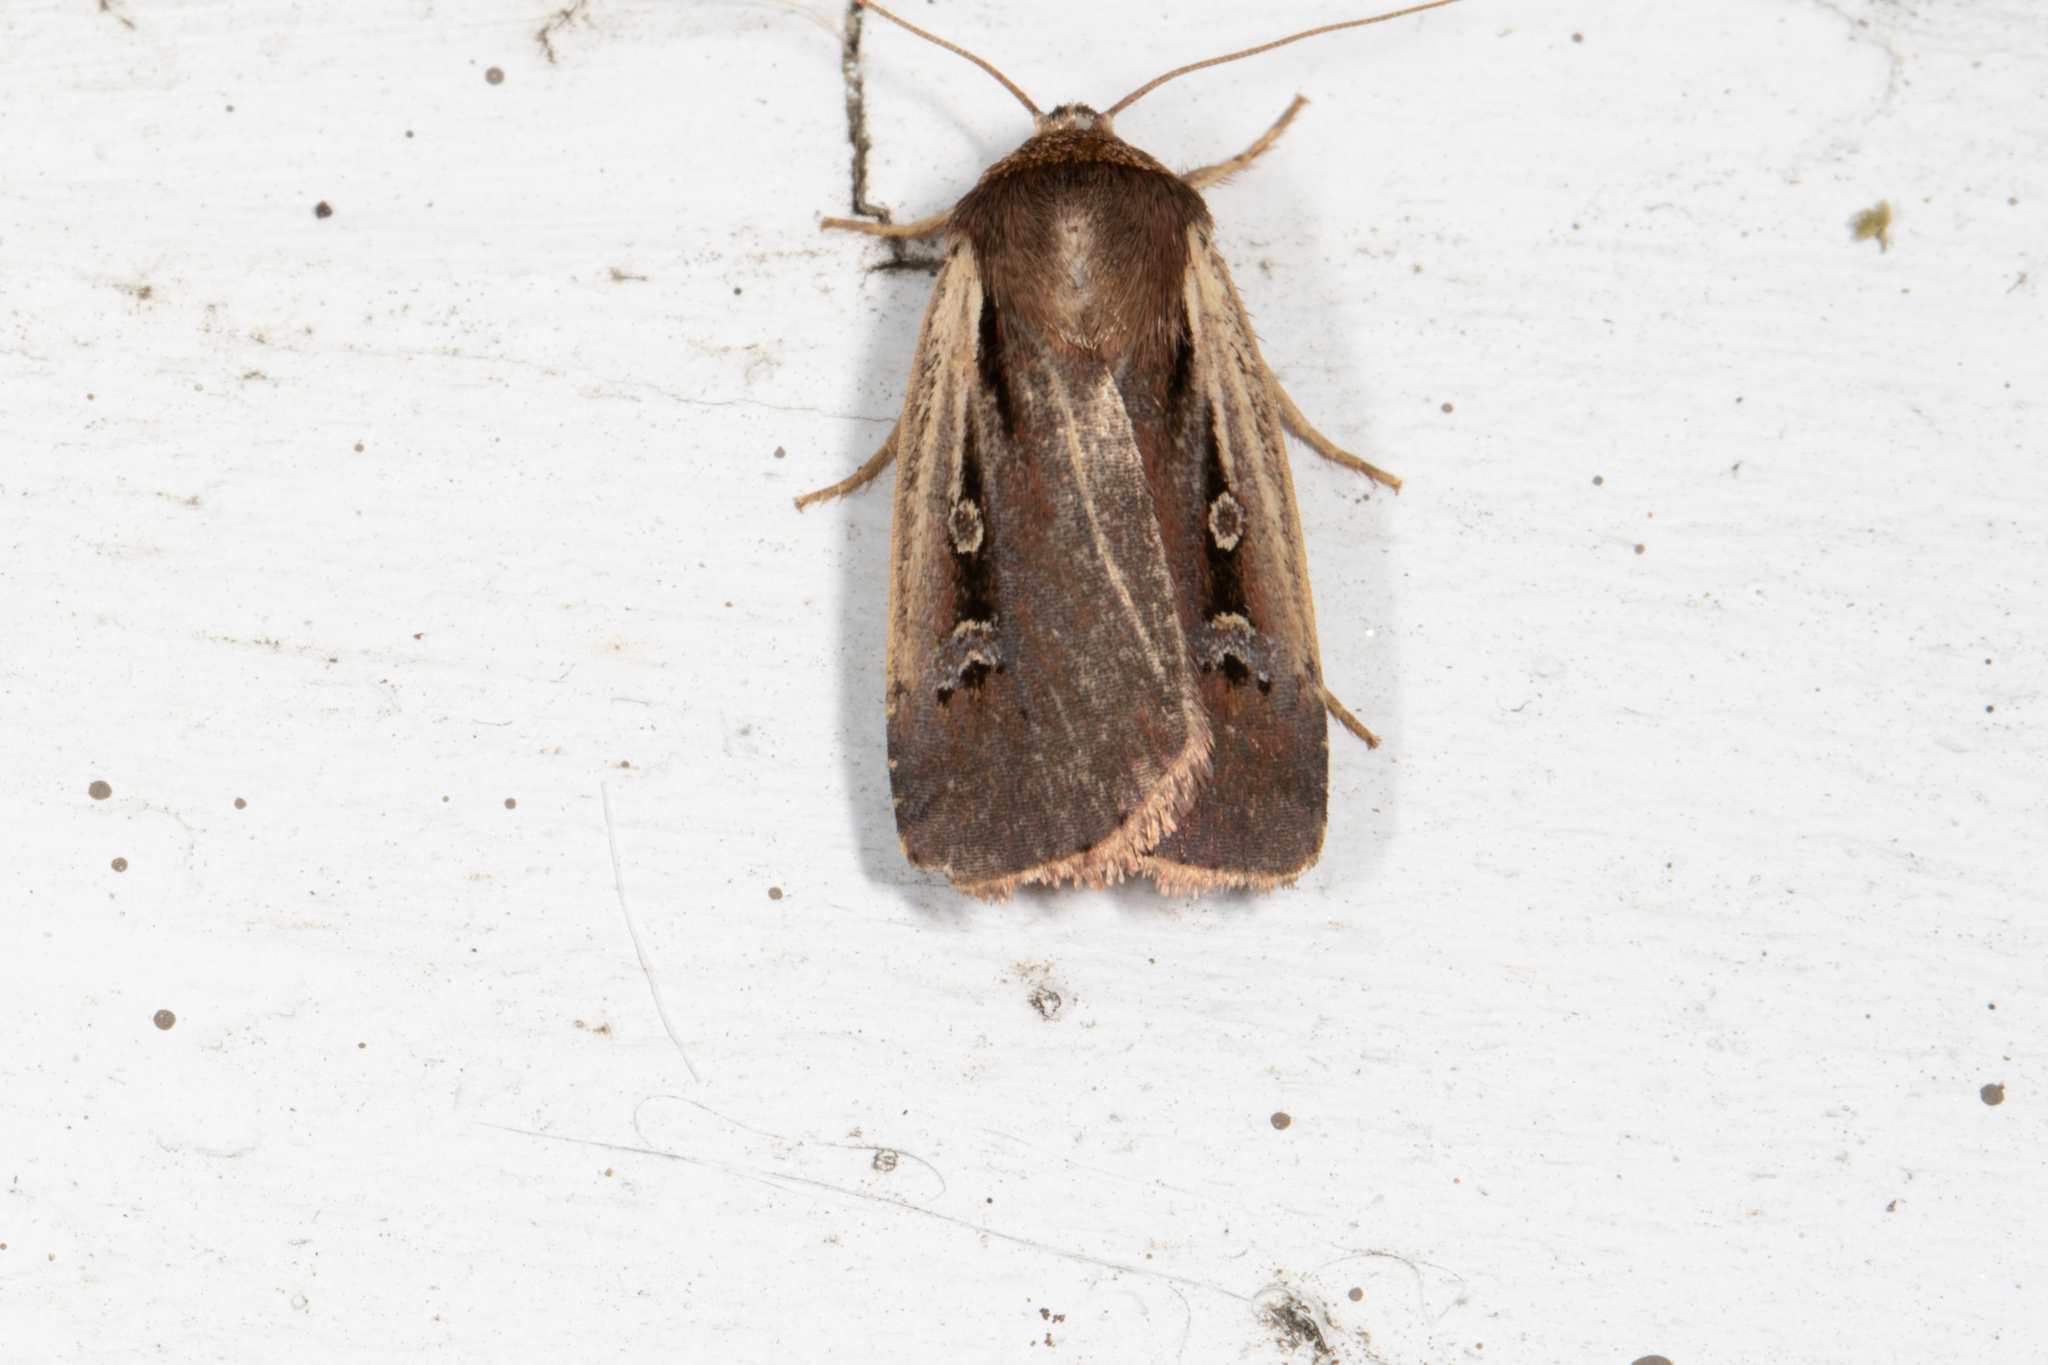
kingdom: Animalia
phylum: Arthropoda
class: Insecta
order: Lepidoptera
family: Noctuidae
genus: Ochropleura
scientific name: Ochropleura implecta
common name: Flame-shouldered dart
